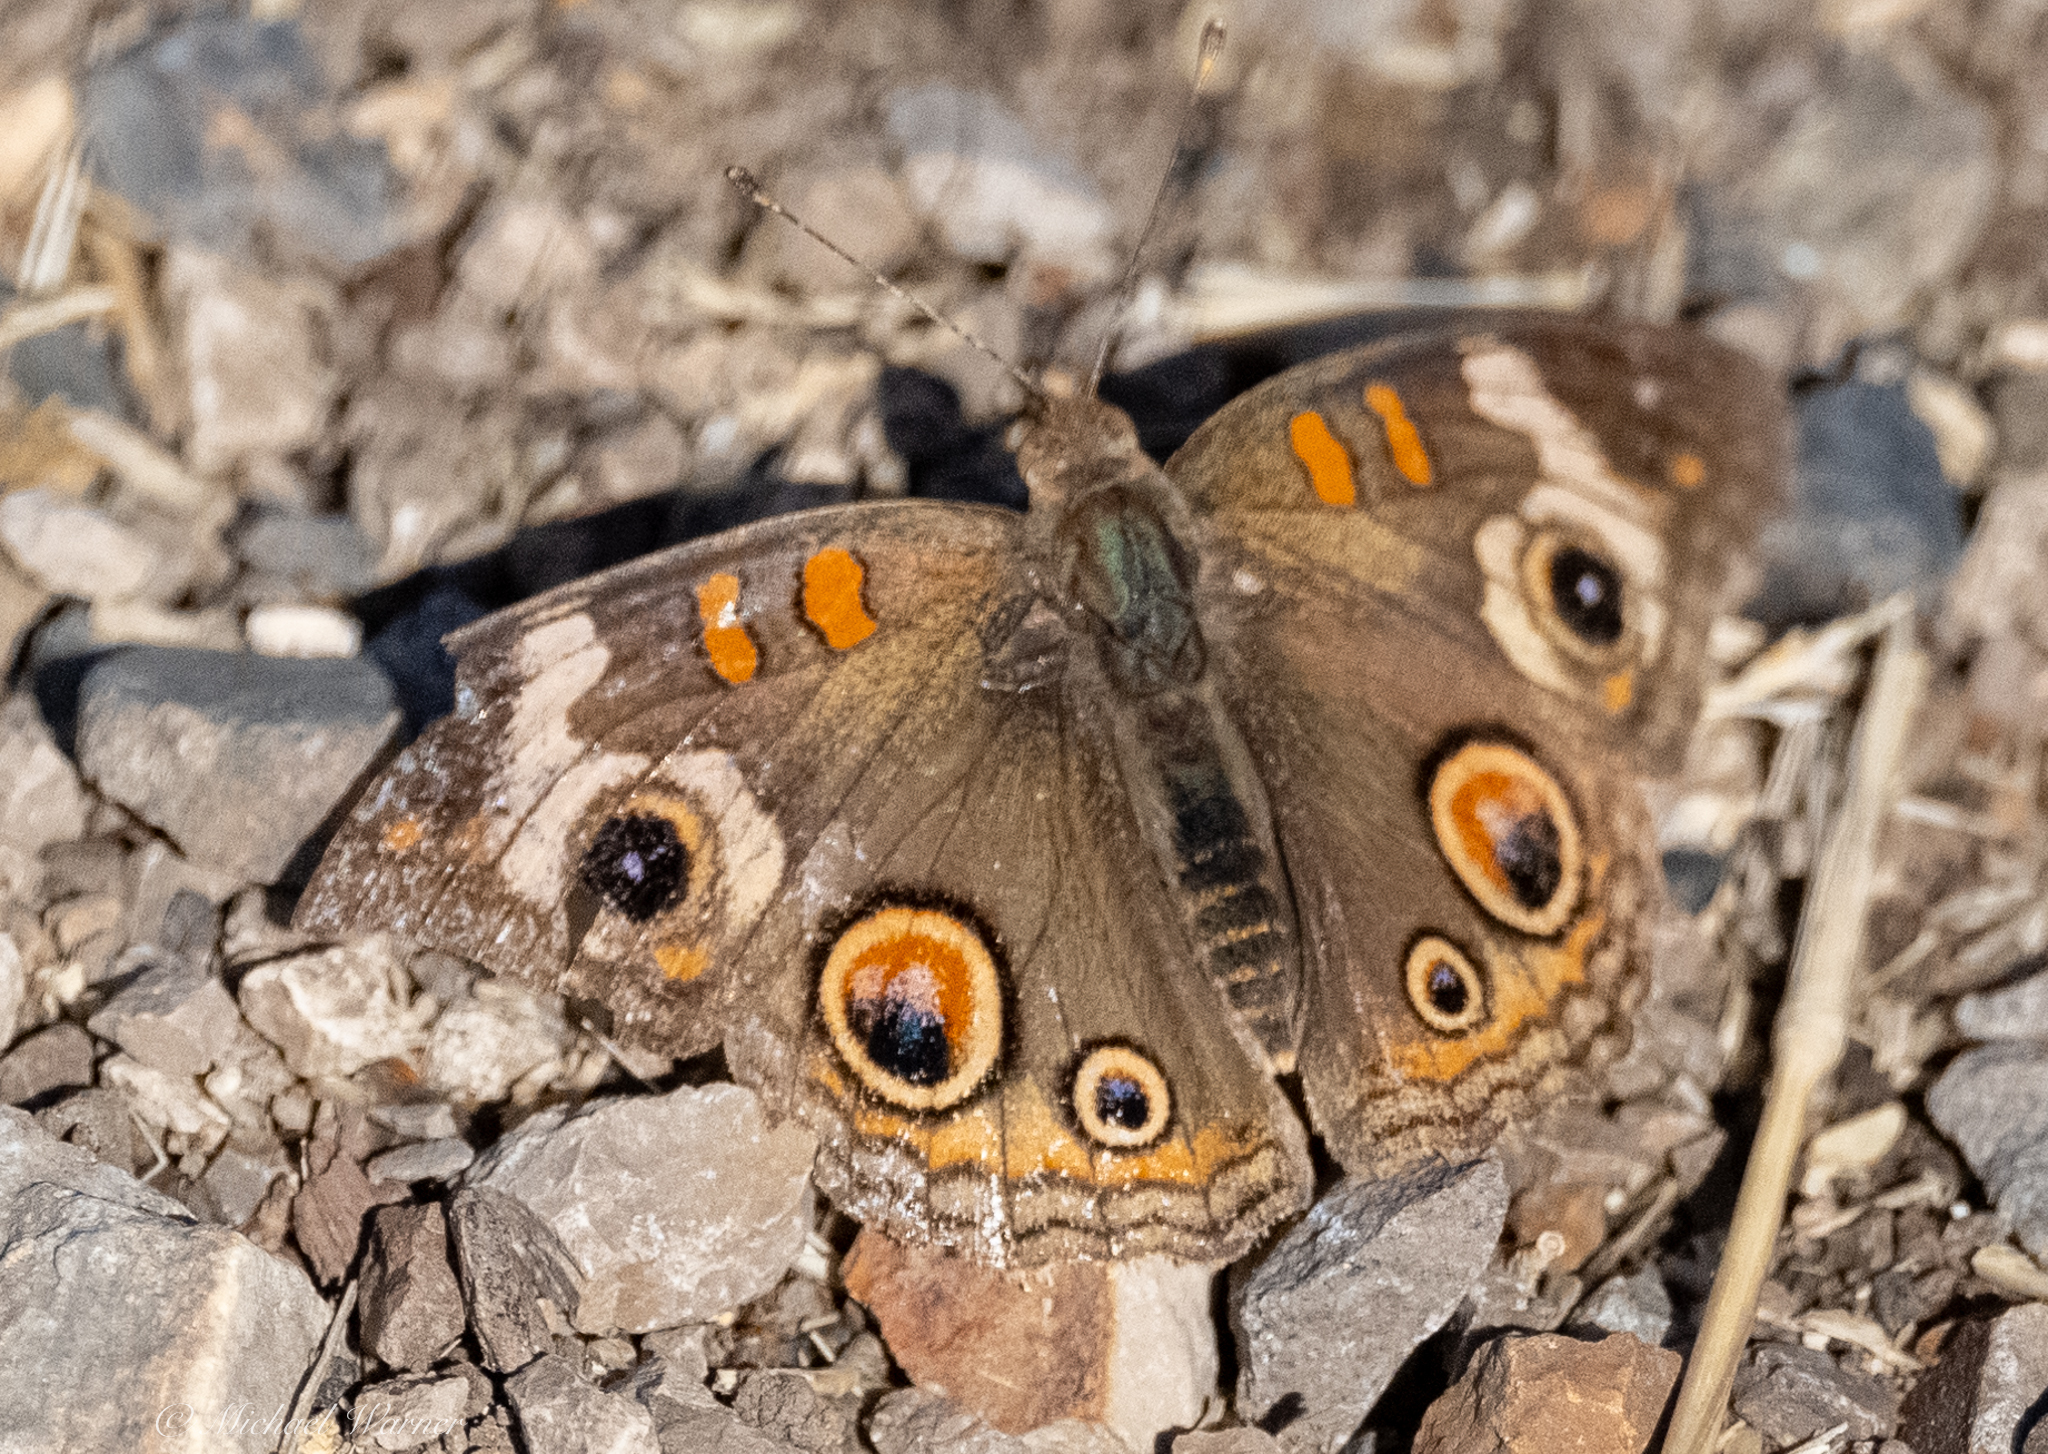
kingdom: Animalia
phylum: Arthropoda
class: Insecta
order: Lepidoptera
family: Nymphalidae
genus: Junonia
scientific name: Junonia grisea
